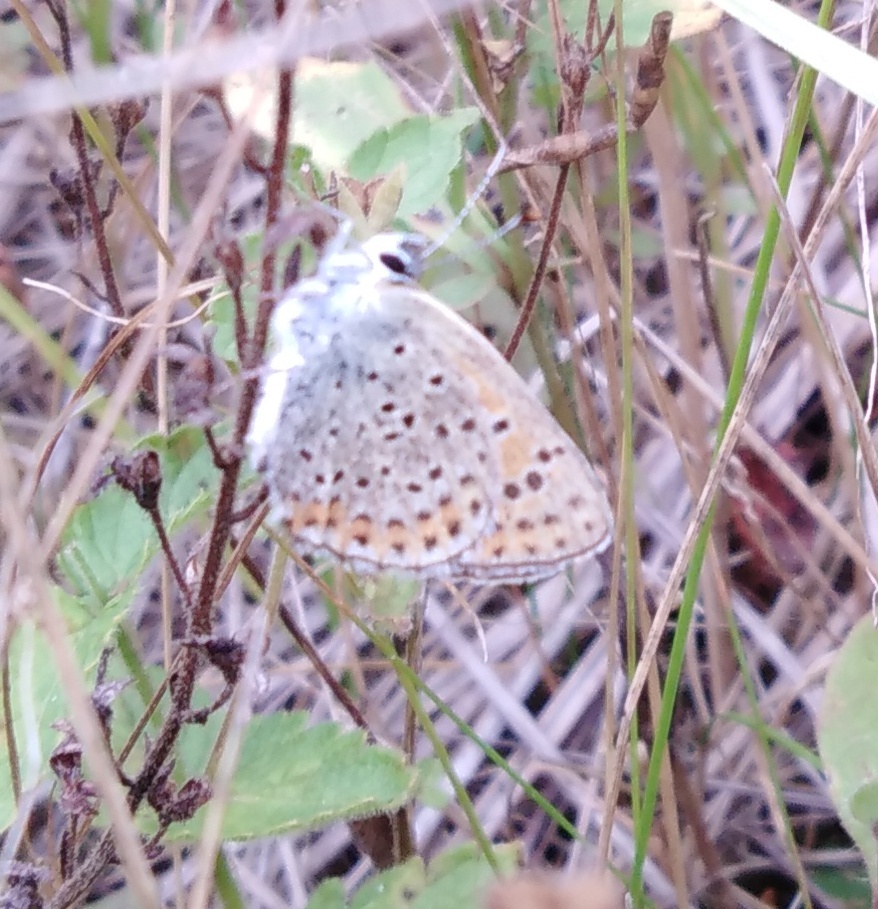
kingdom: Animalia
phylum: Arthropoda
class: Insecta
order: Lepidoptera
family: Lycaenidae
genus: Loweia
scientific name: Loweia tityrus
